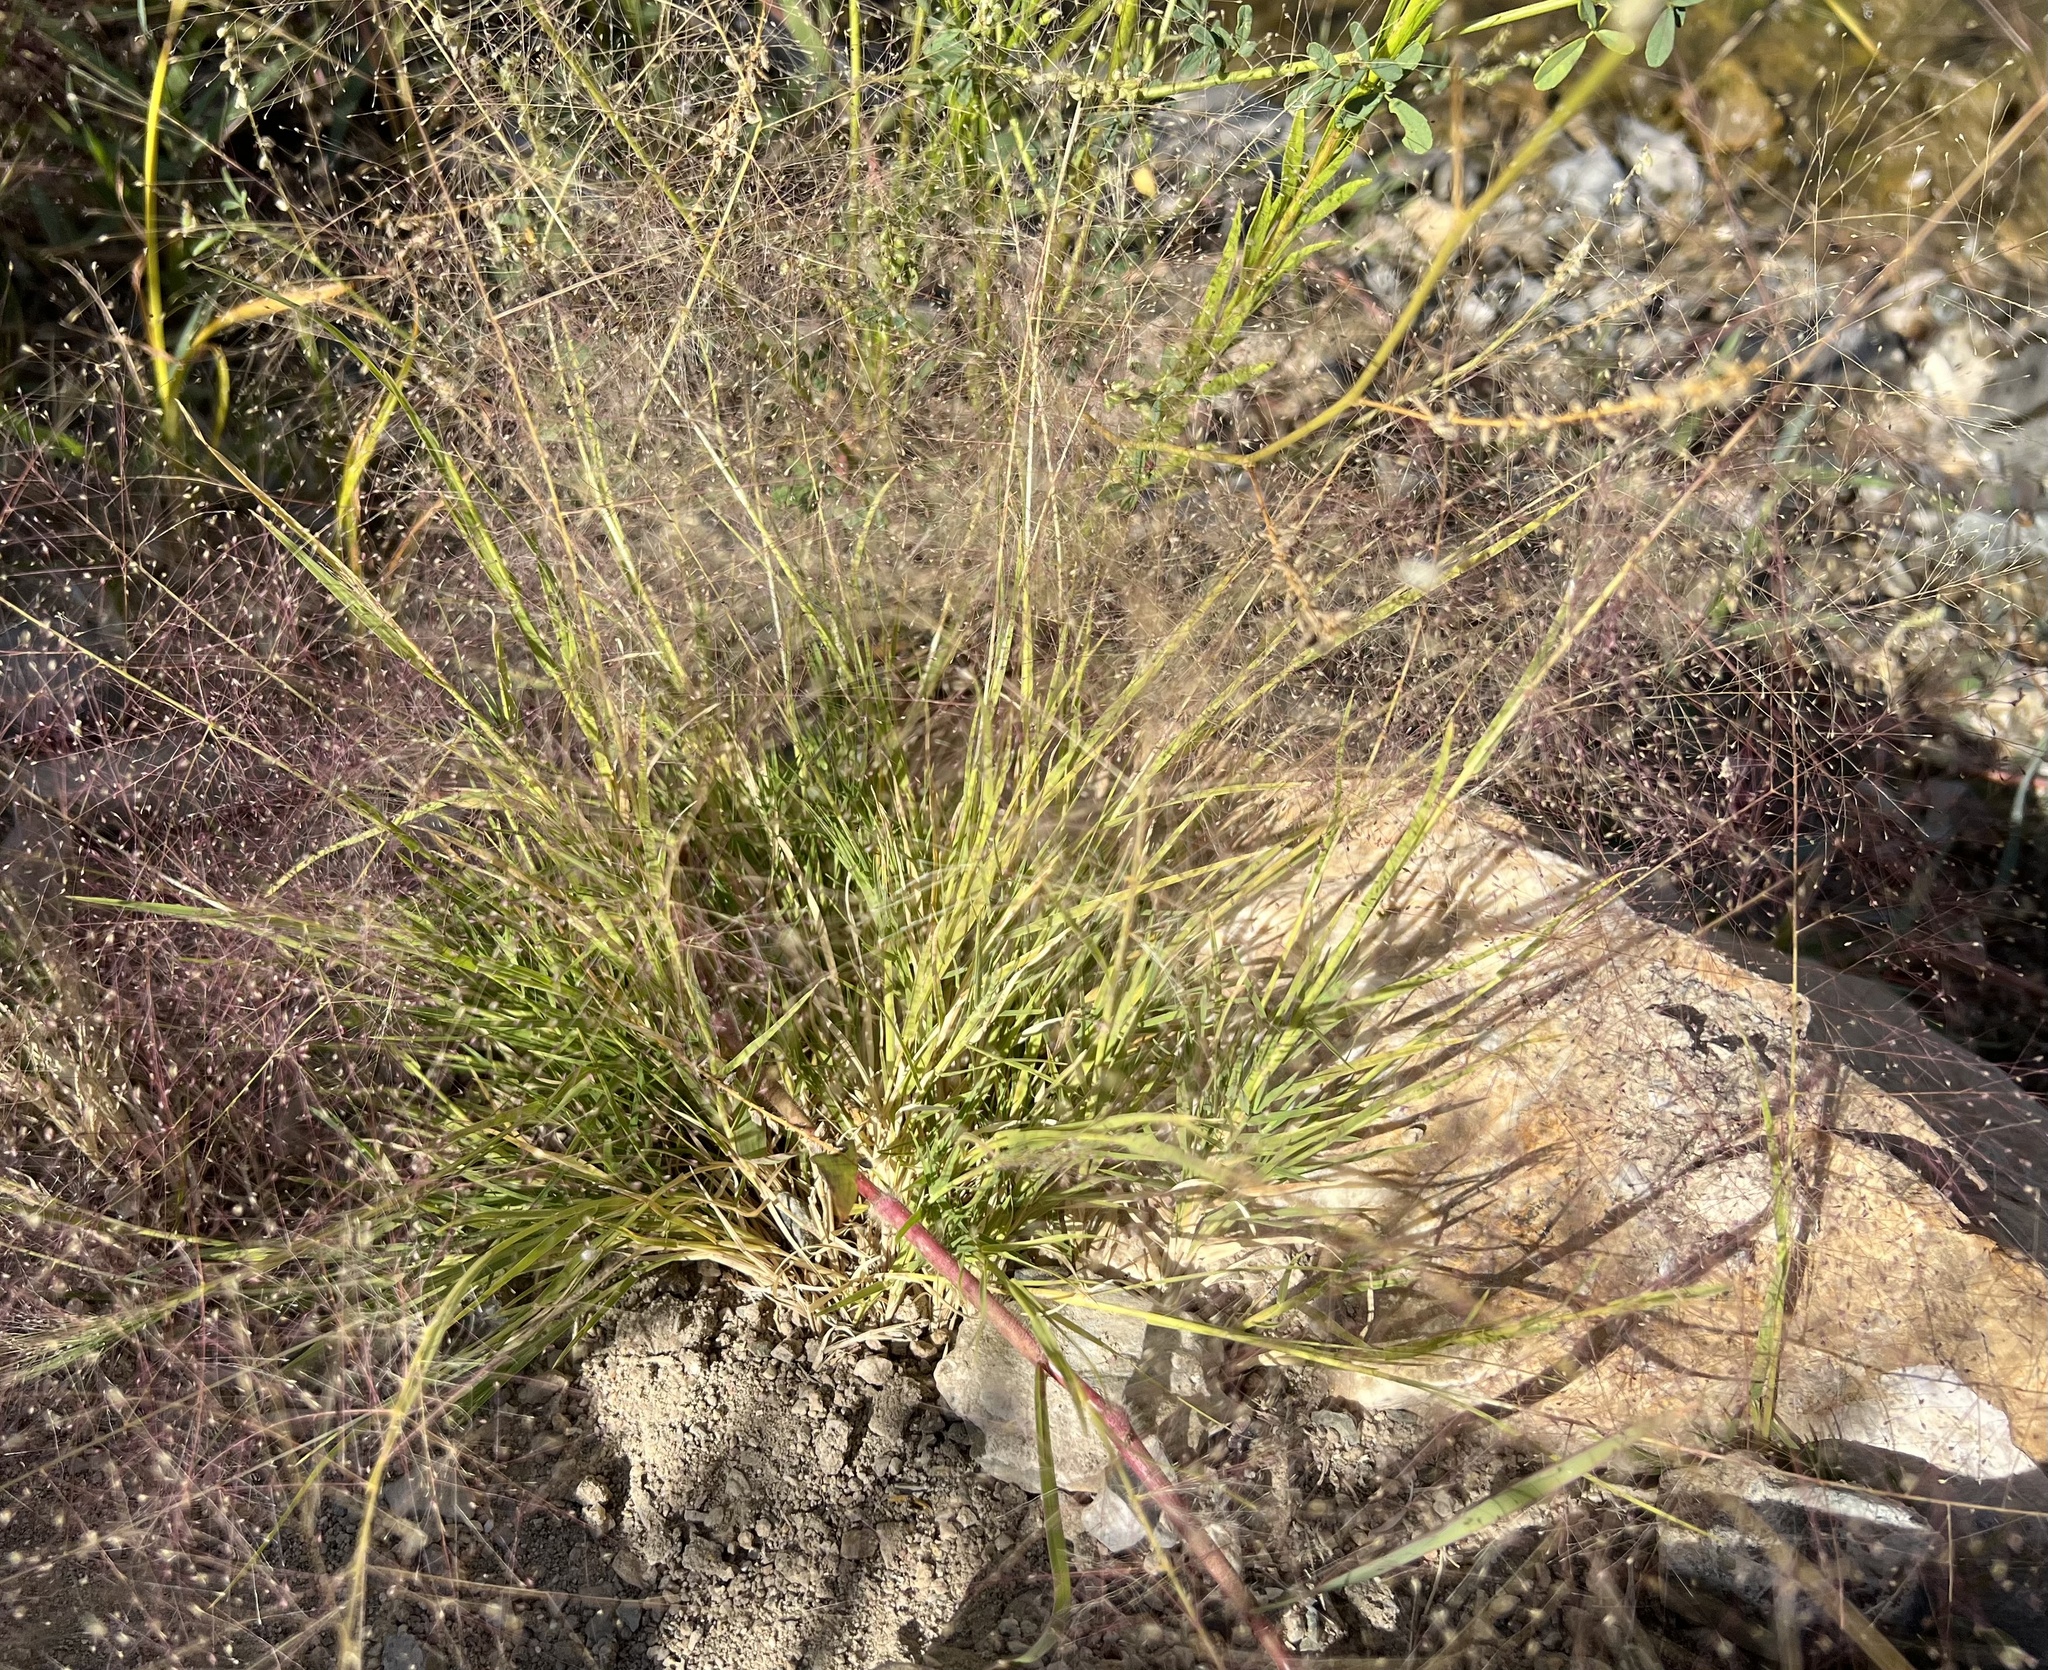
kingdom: Plantae
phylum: Tracheophyta
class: Liliopsida
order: Poales
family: Poaceae
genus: Muhlenbergia
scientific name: Muhlenbergia asperifolia
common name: Alkali muhly
